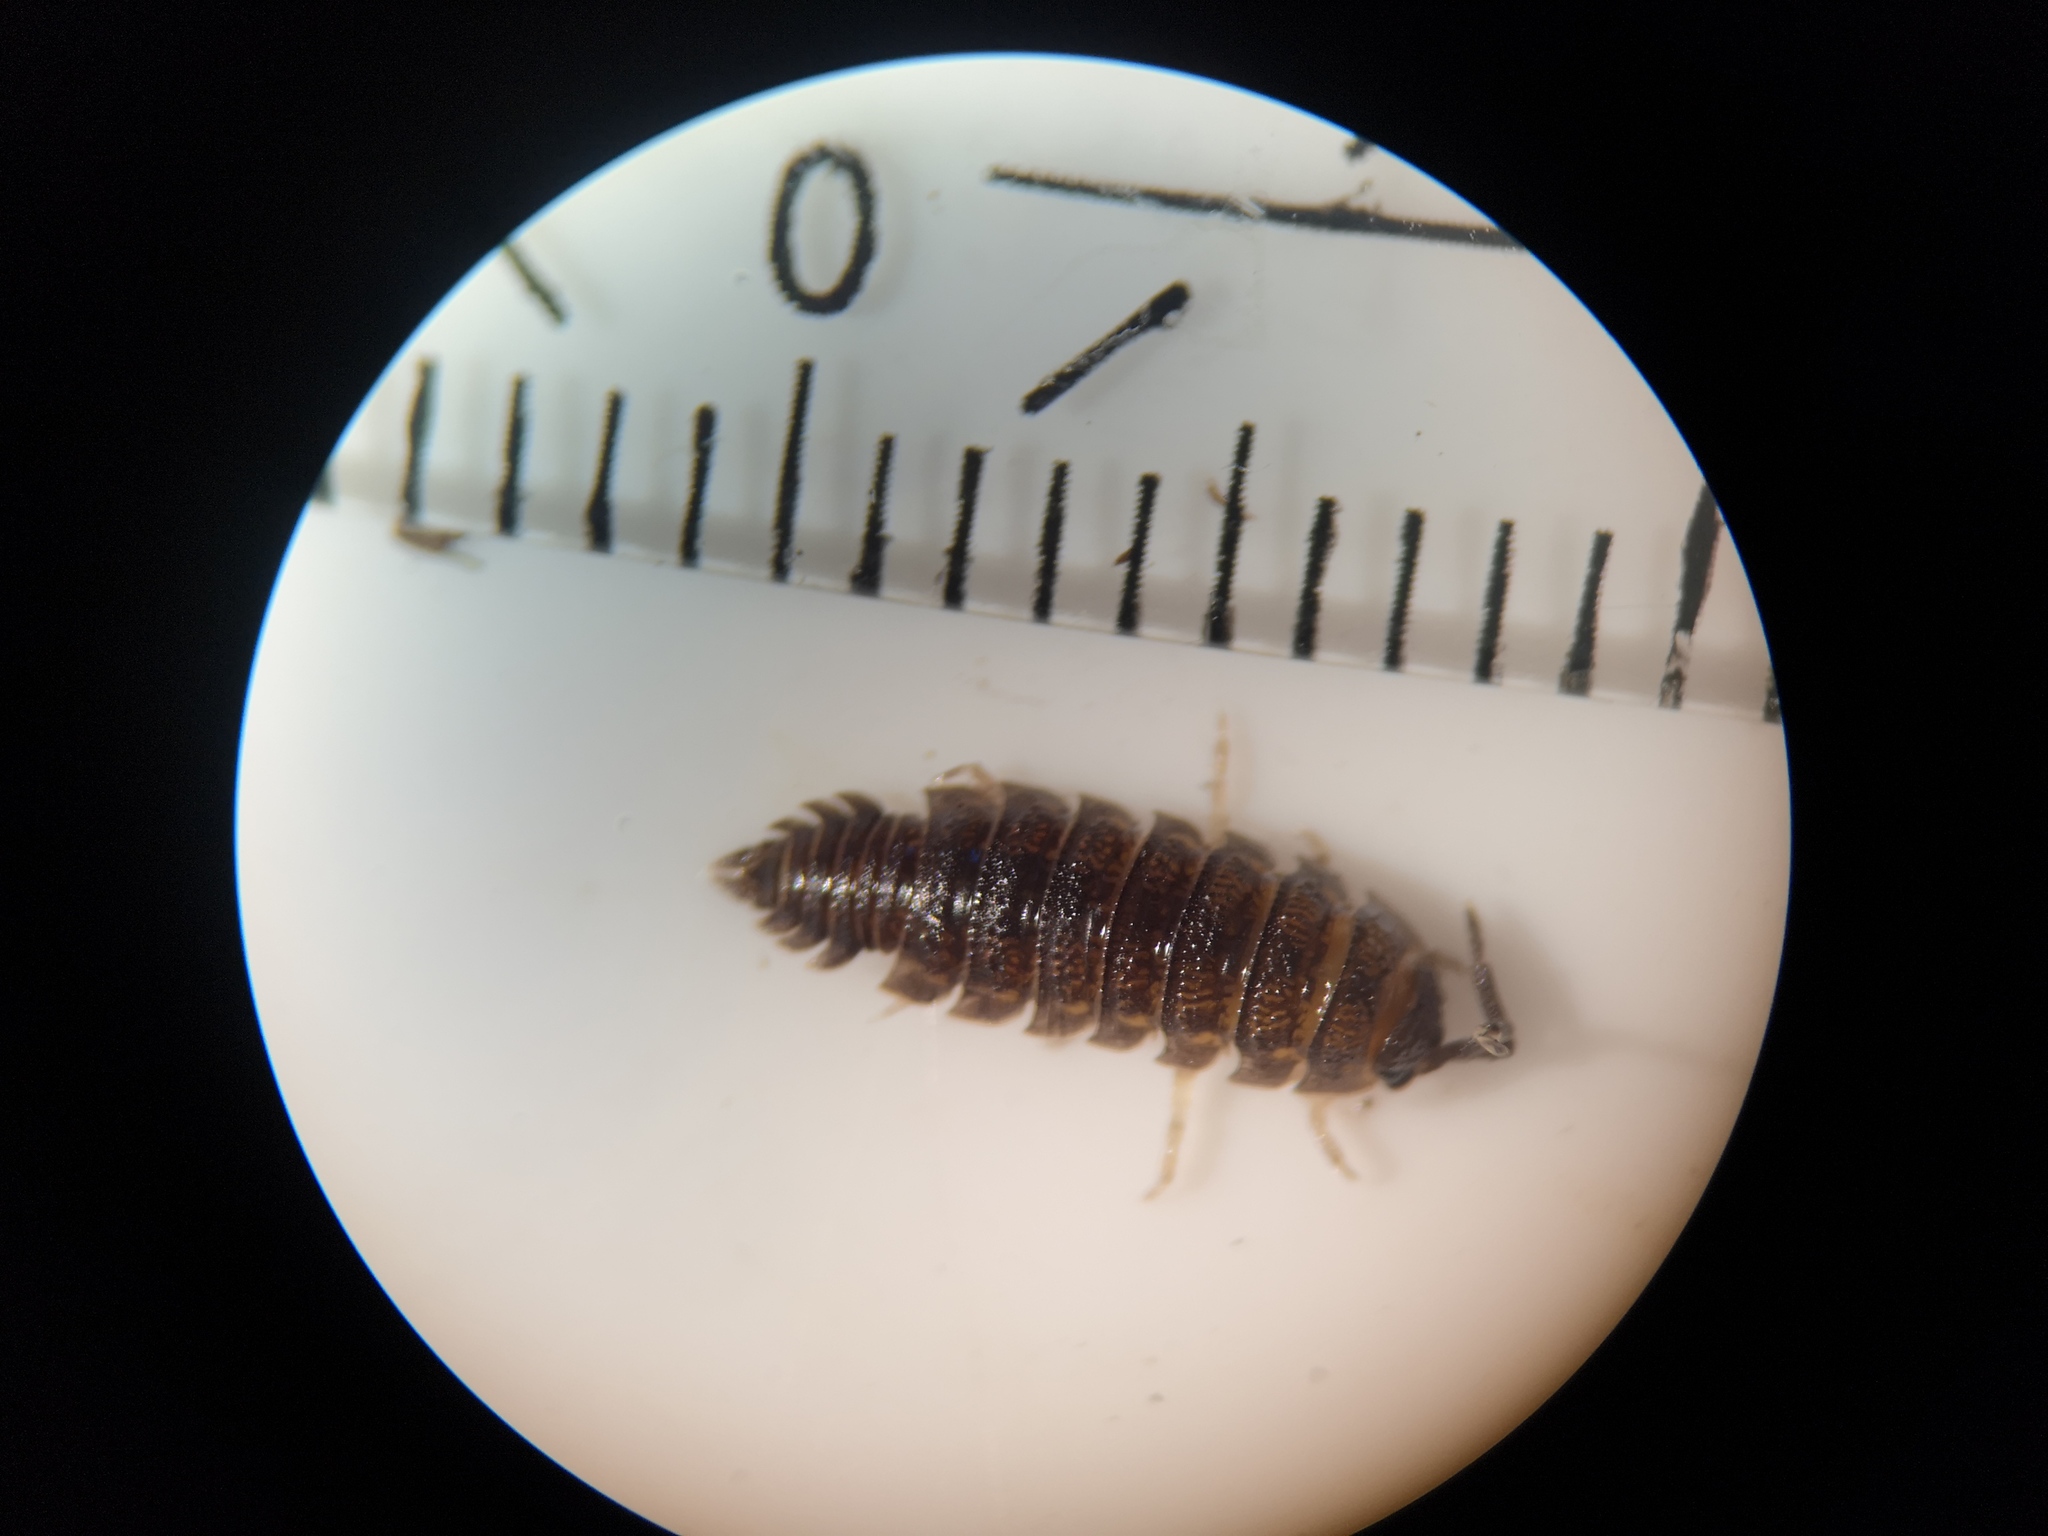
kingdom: Animalia
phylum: Arthropoda
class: Malacostraca
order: Isopoda
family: Porcellionidae
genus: Porcellio
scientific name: Porcellio scaber
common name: Common rough woodlouse
